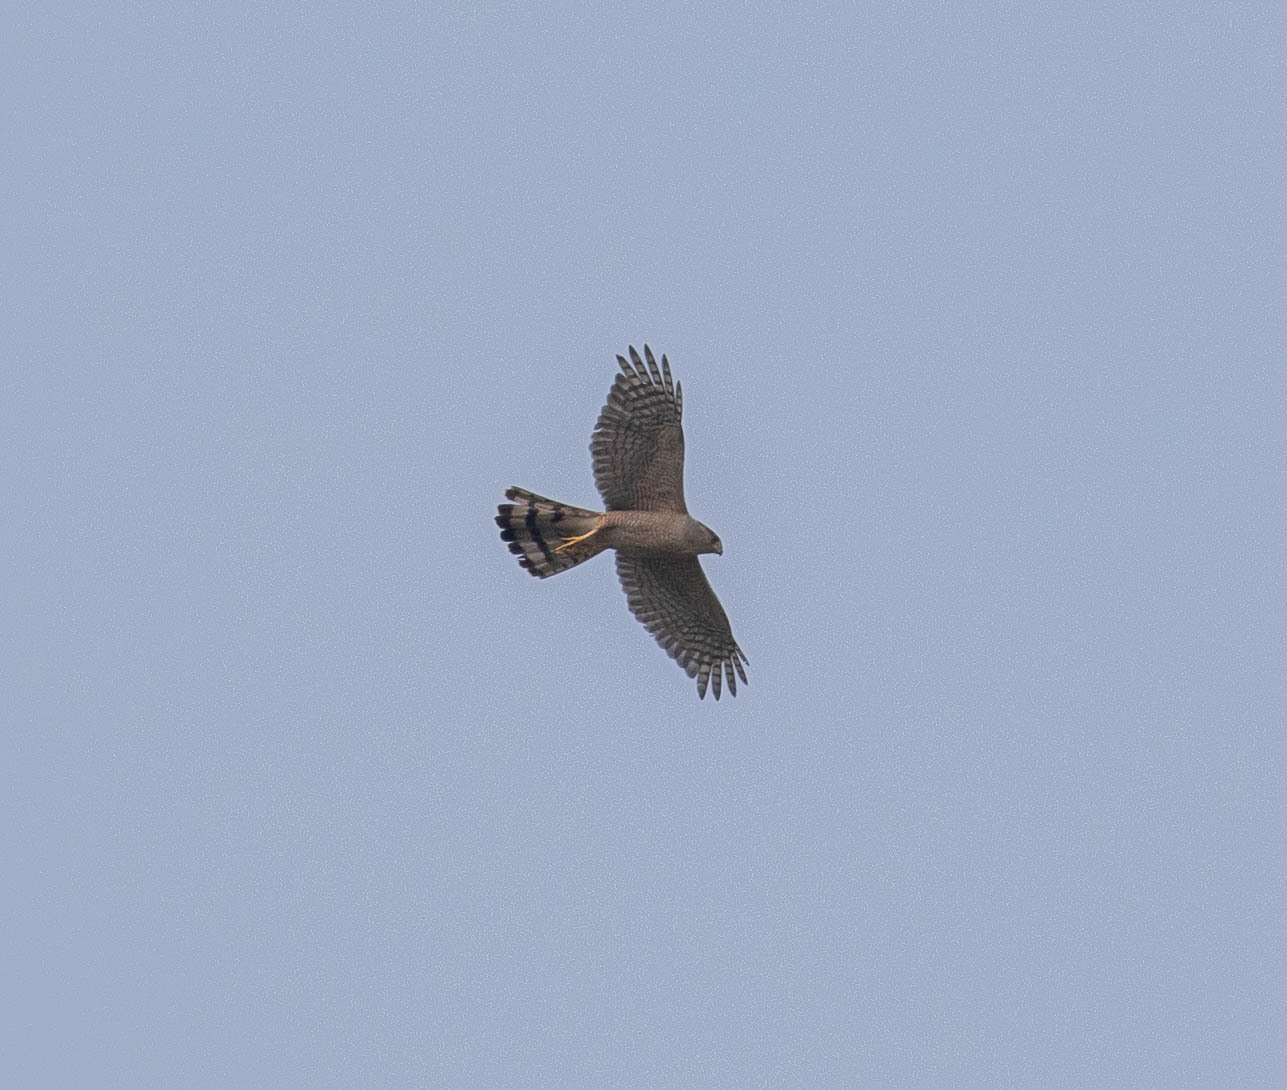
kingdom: Animalia
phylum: Chordata
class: Aves
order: Accipitriformes
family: Accipitridae
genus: Accipiter
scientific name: Accipiter cooperii
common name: Cooper's hawk
